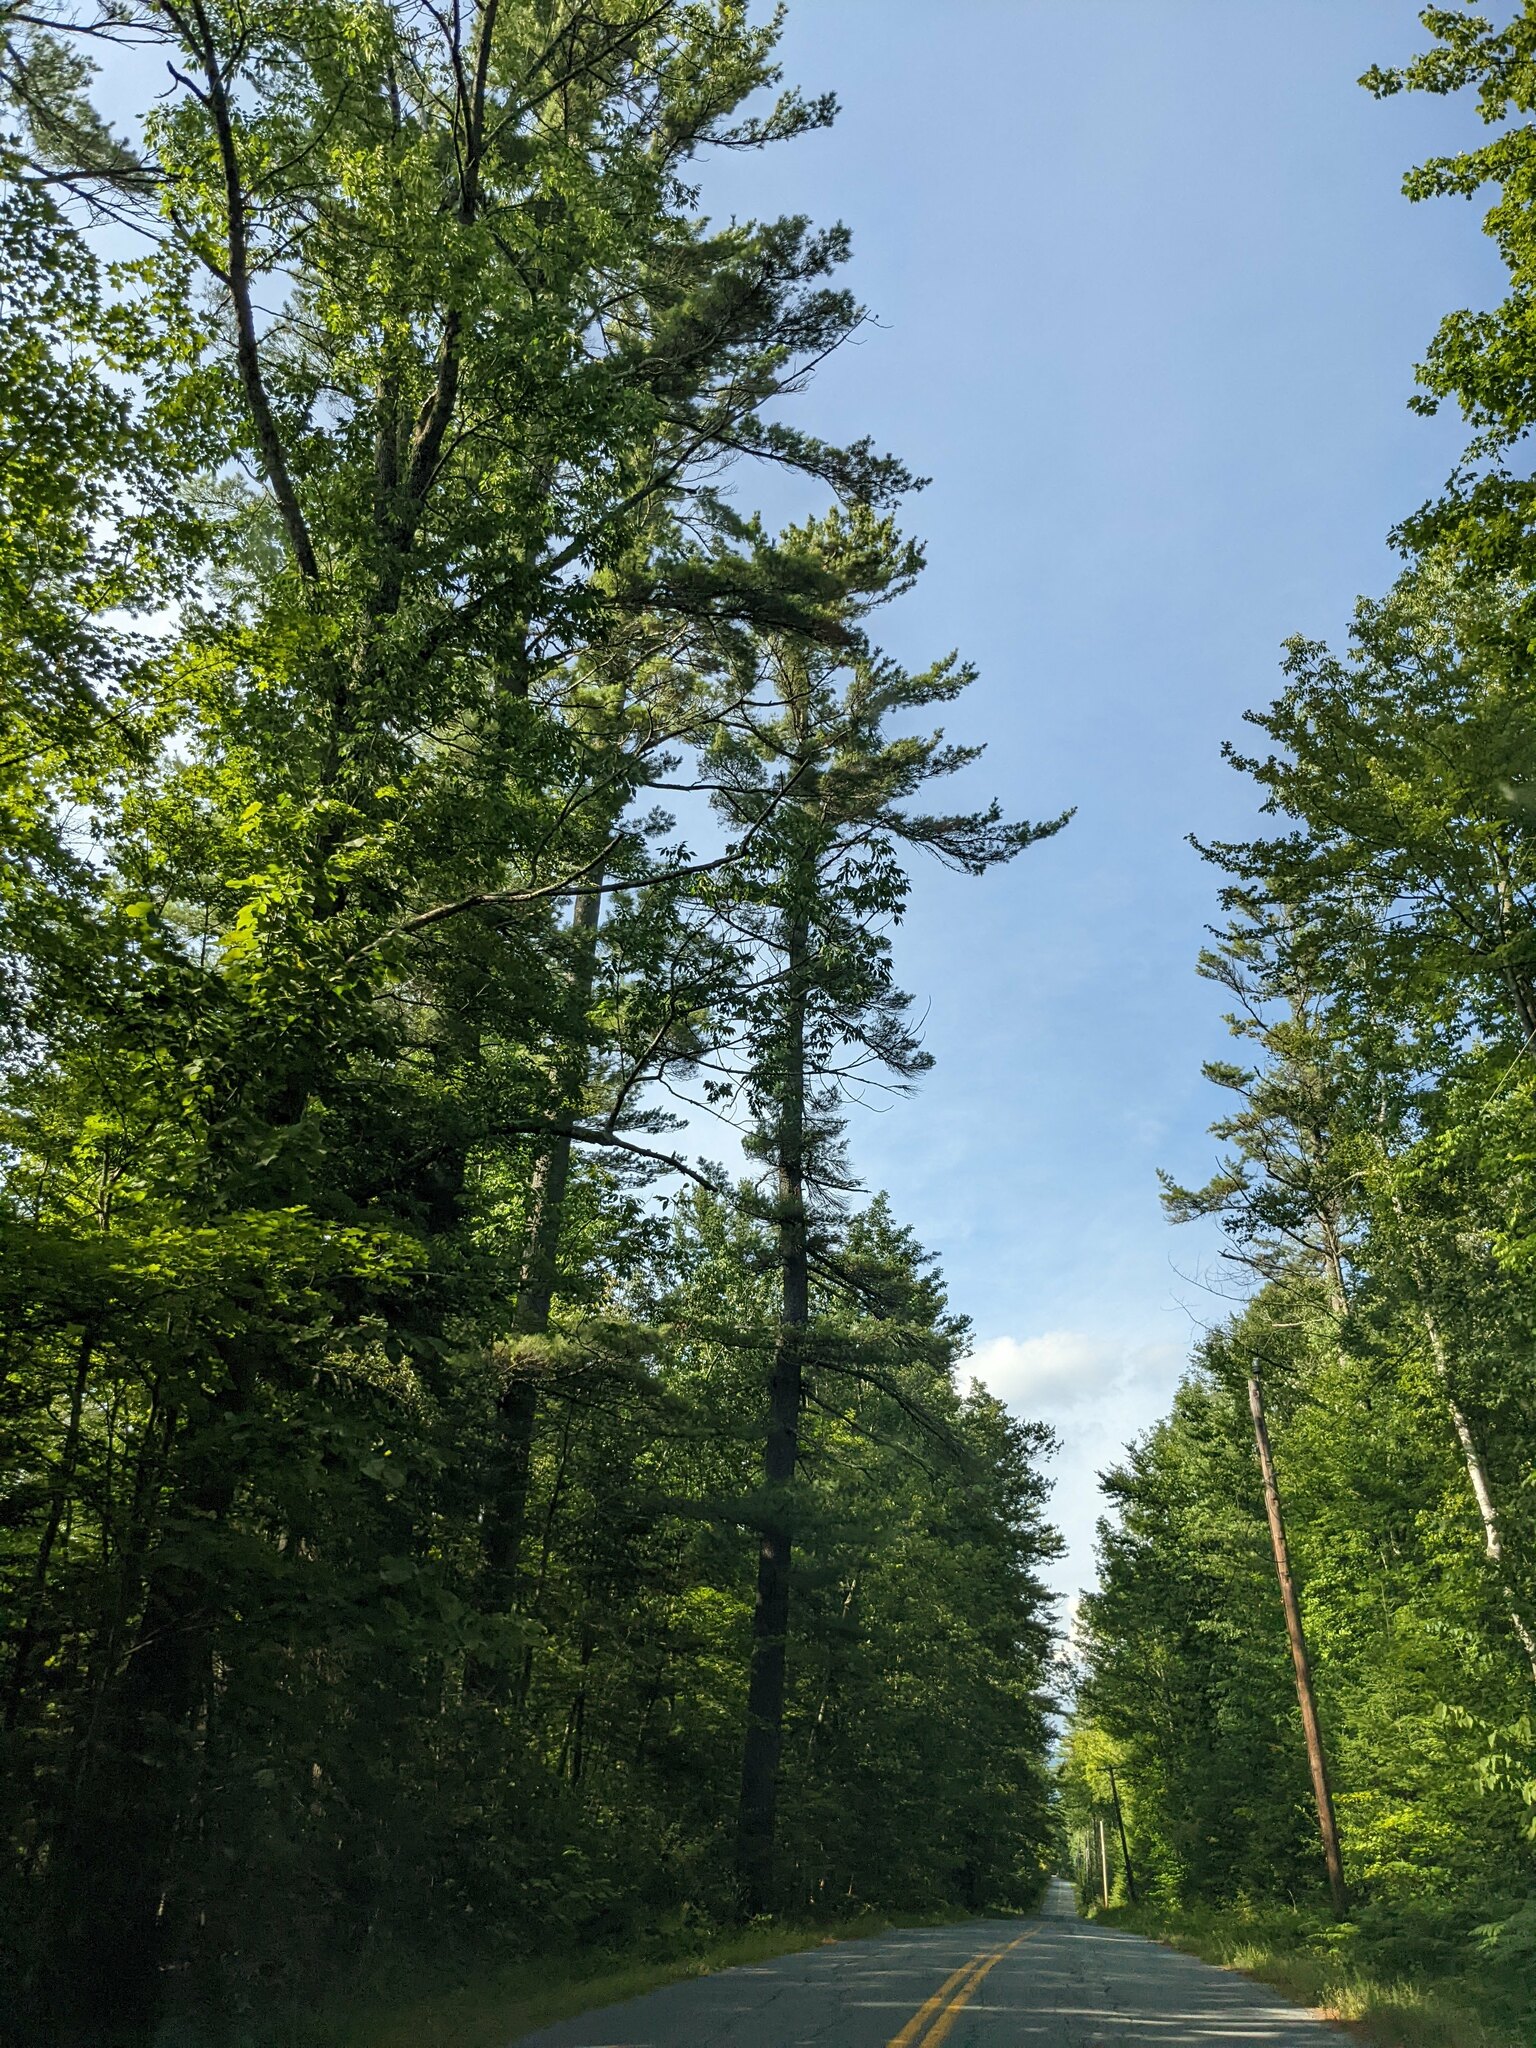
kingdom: Plantae
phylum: Tracheophyta
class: Pinopsida
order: Pinales
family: Pinaceae
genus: Pinus
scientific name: Pinus strobus
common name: Weymouth pine
